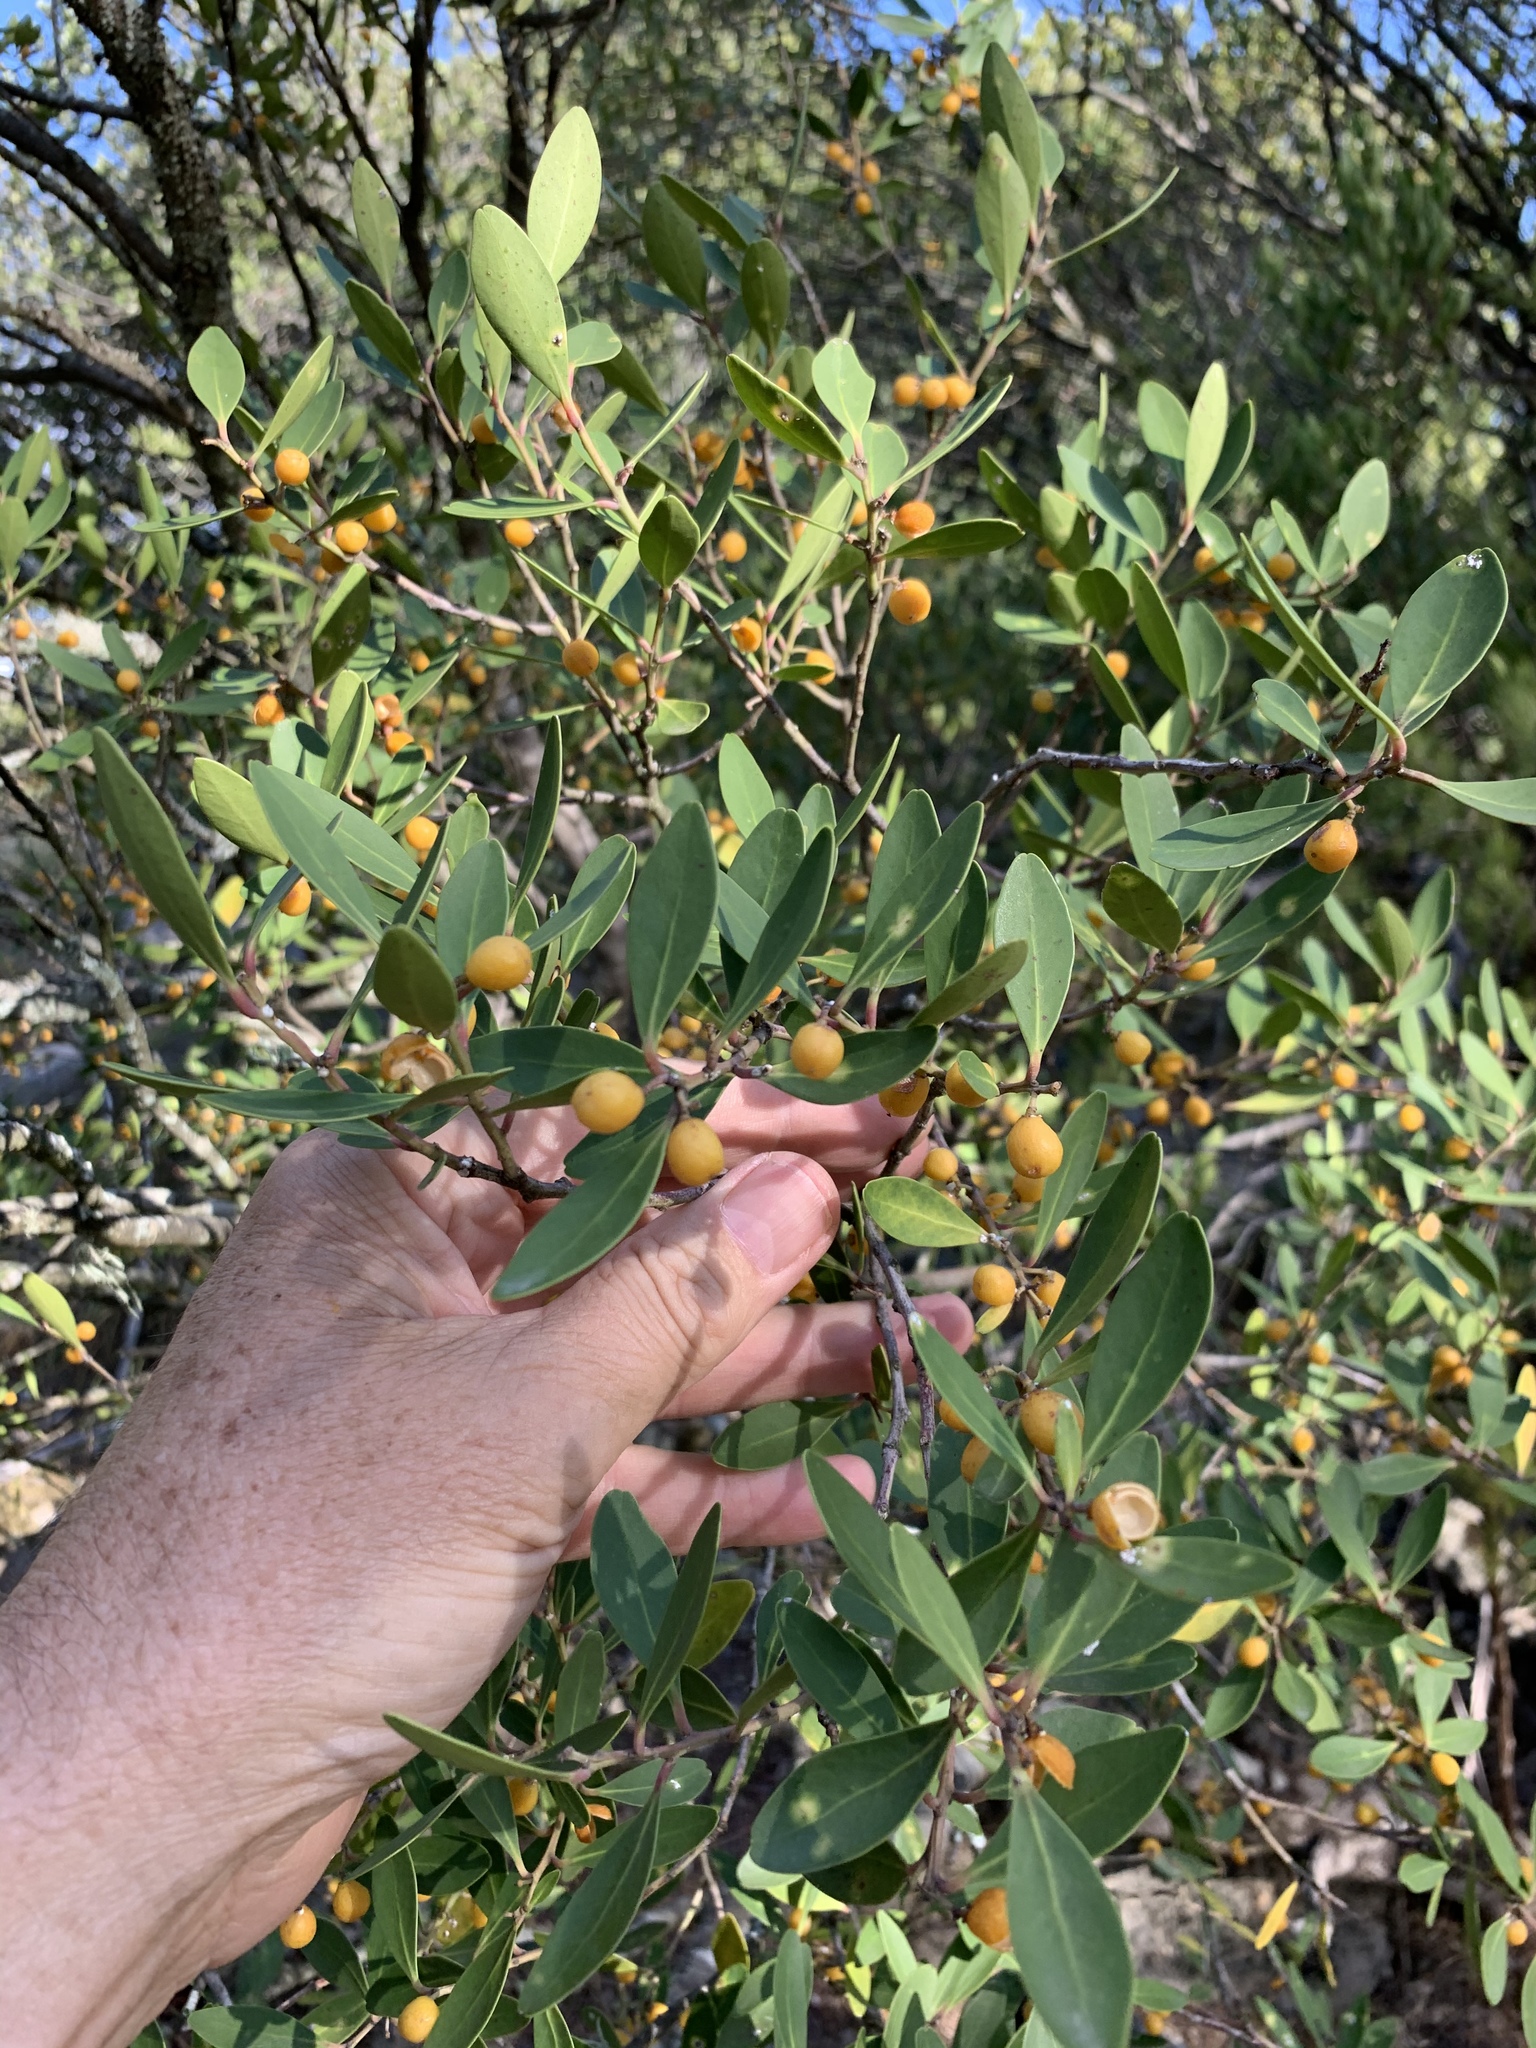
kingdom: Plantae
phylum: Tracheophyta
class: Magnoliopsida
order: Celastrales
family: Celastraceae
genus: Gymnosporia
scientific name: Gymnosporia laurina
